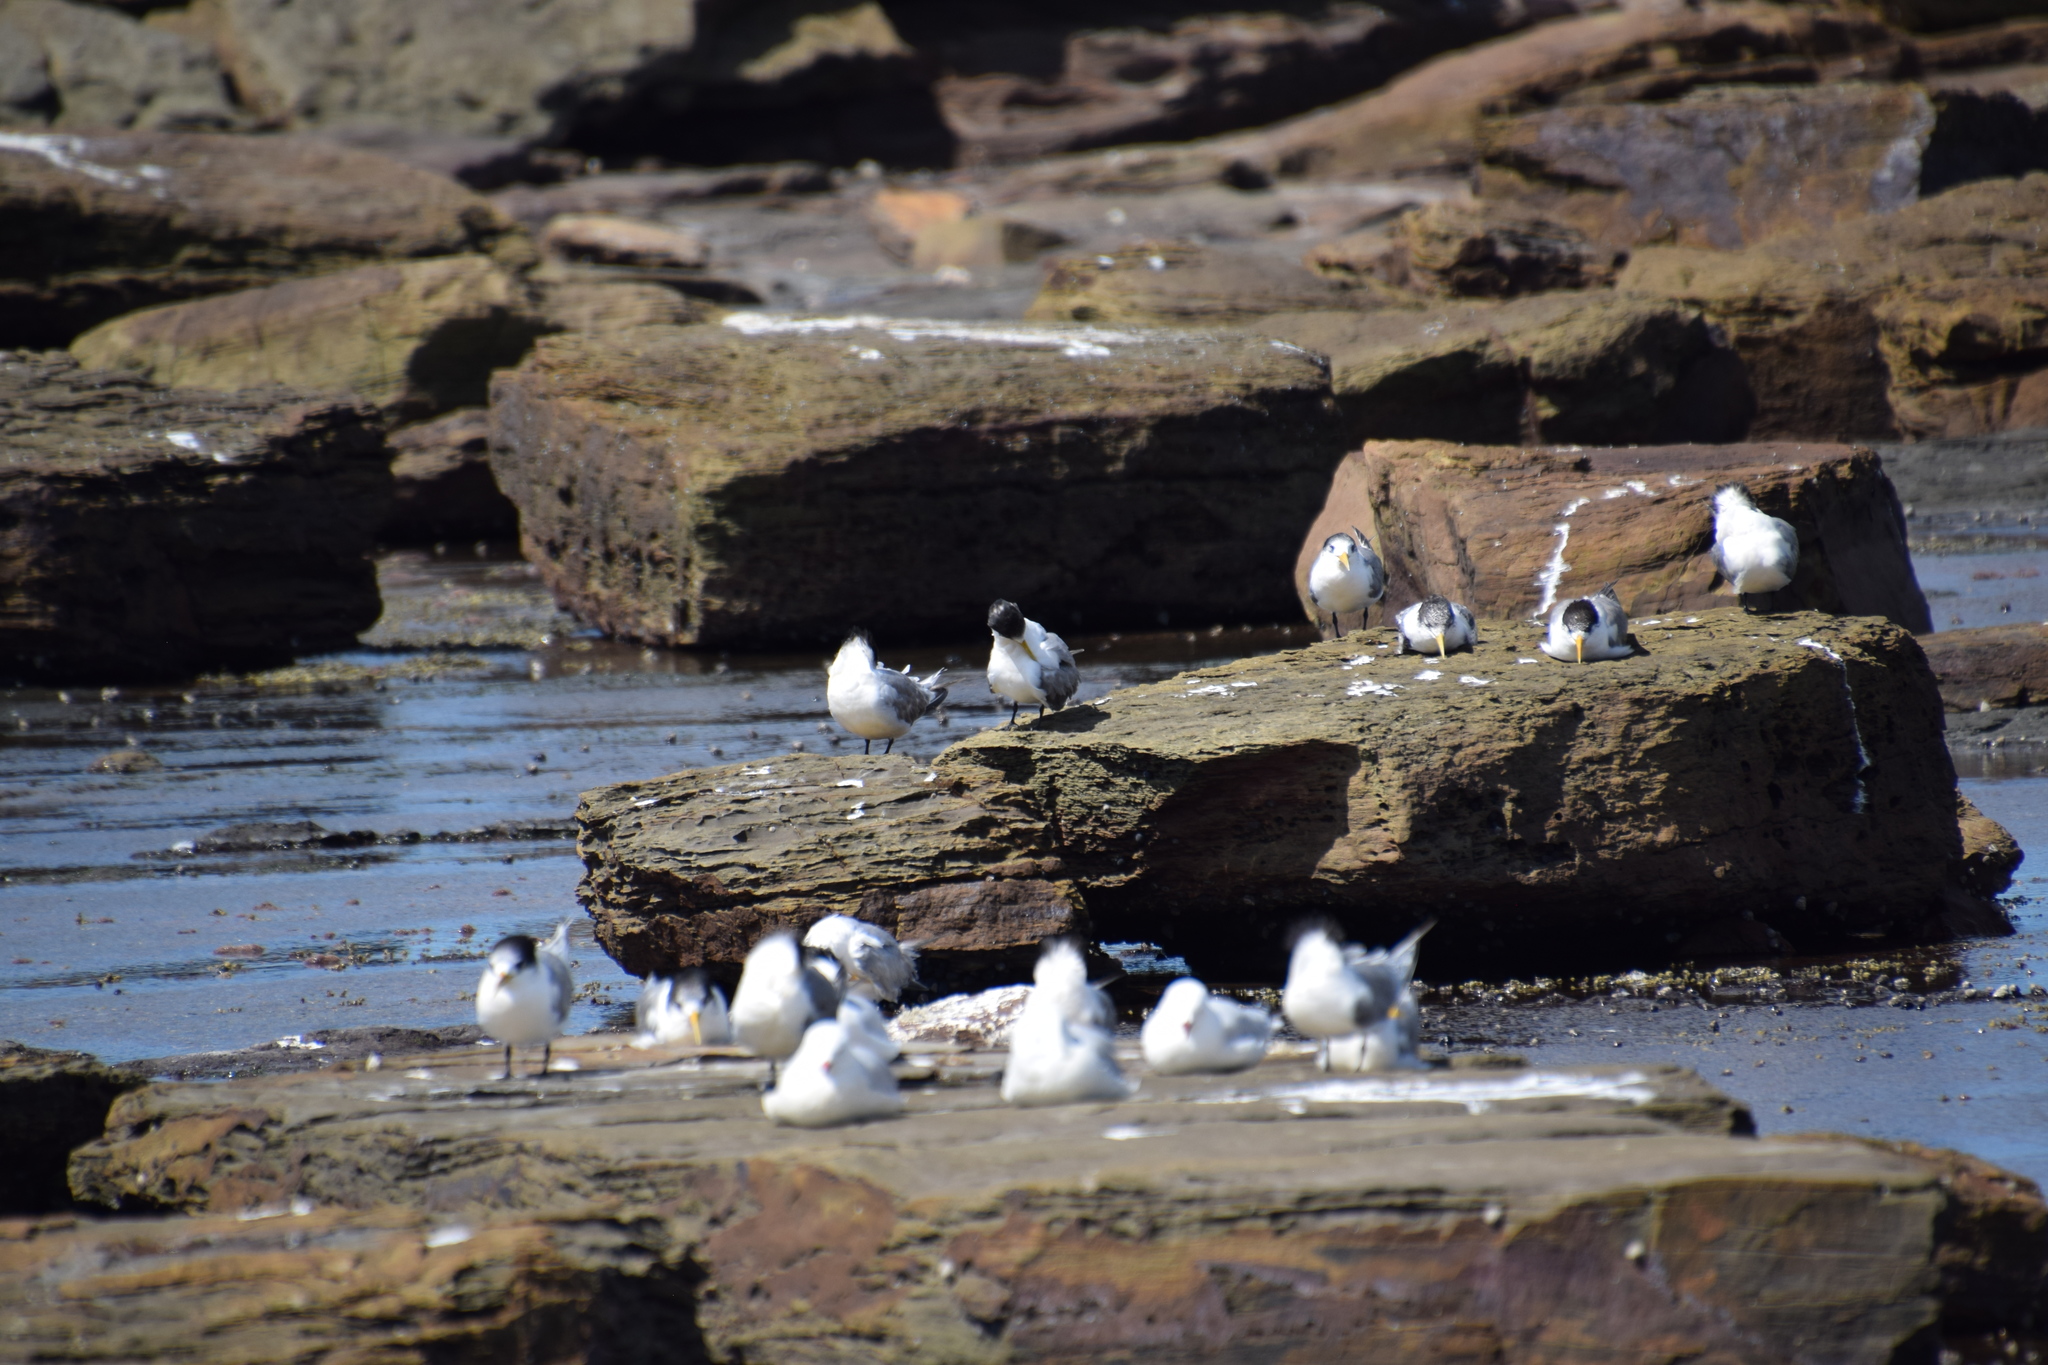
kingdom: Animalia
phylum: Chordata
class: Aves
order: Charadriiformes
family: Laridae
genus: Thalasseus
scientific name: Thalasseus bergii
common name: Greater crested tern
